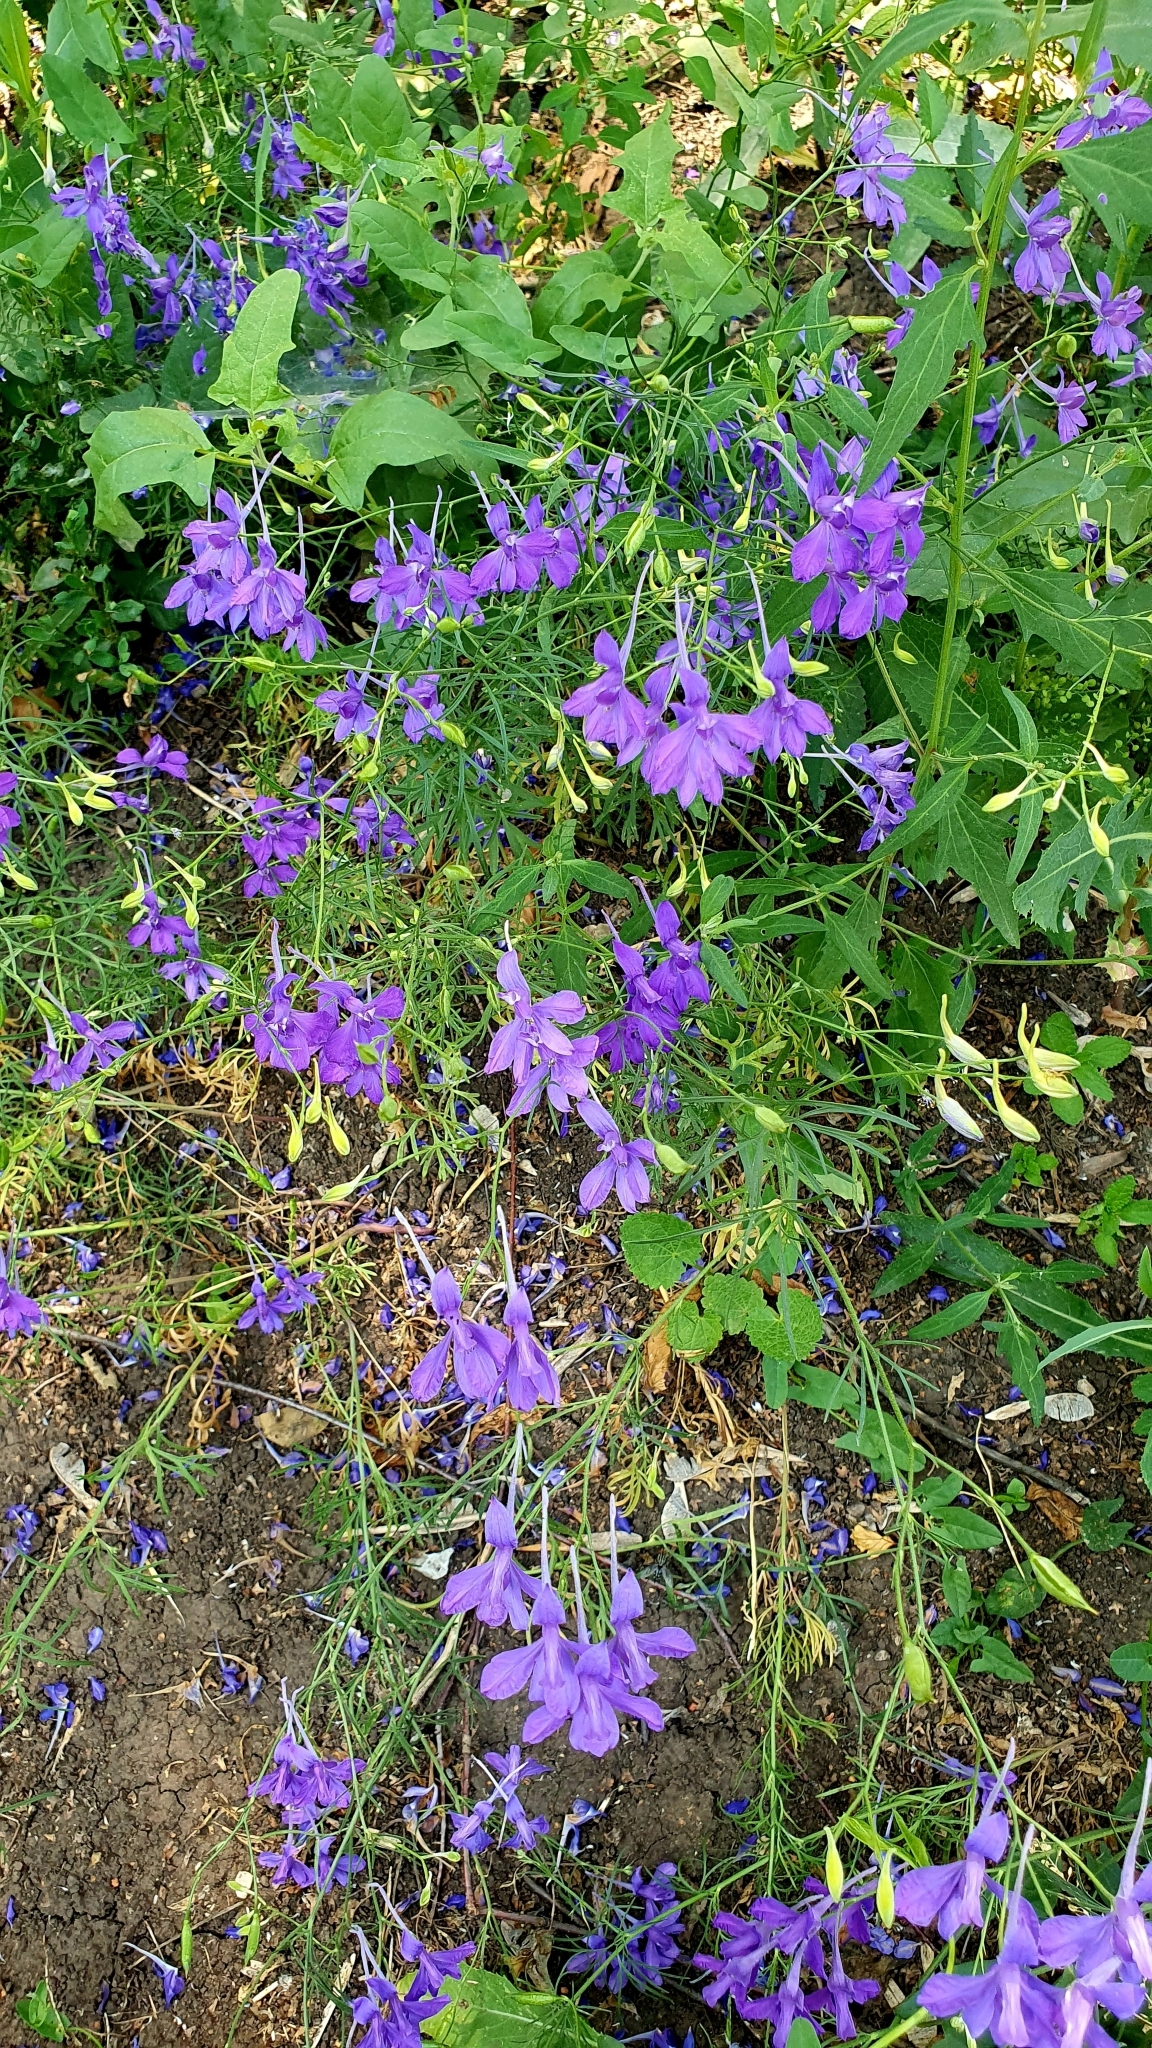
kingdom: Plantae
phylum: Tracheophyta
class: Magnoliopsida
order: Ranunculales
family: Ranunculaceae
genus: Delphinium
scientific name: Delphinium consolida
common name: Branching larkspur
